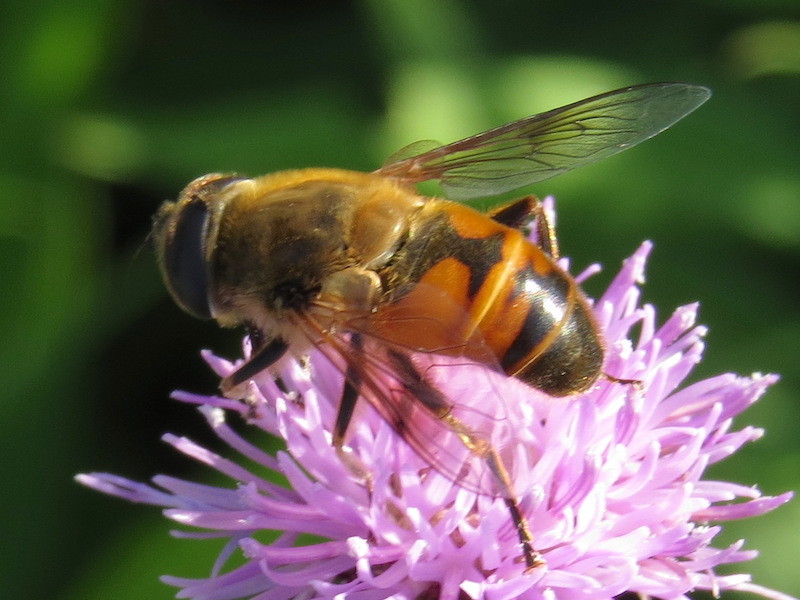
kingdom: Animalia
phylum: Arthropoda
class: Insecta
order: Diptera
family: Syrphidae
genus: Eristalis
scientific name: Eristalis tenax
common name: Drone fly
